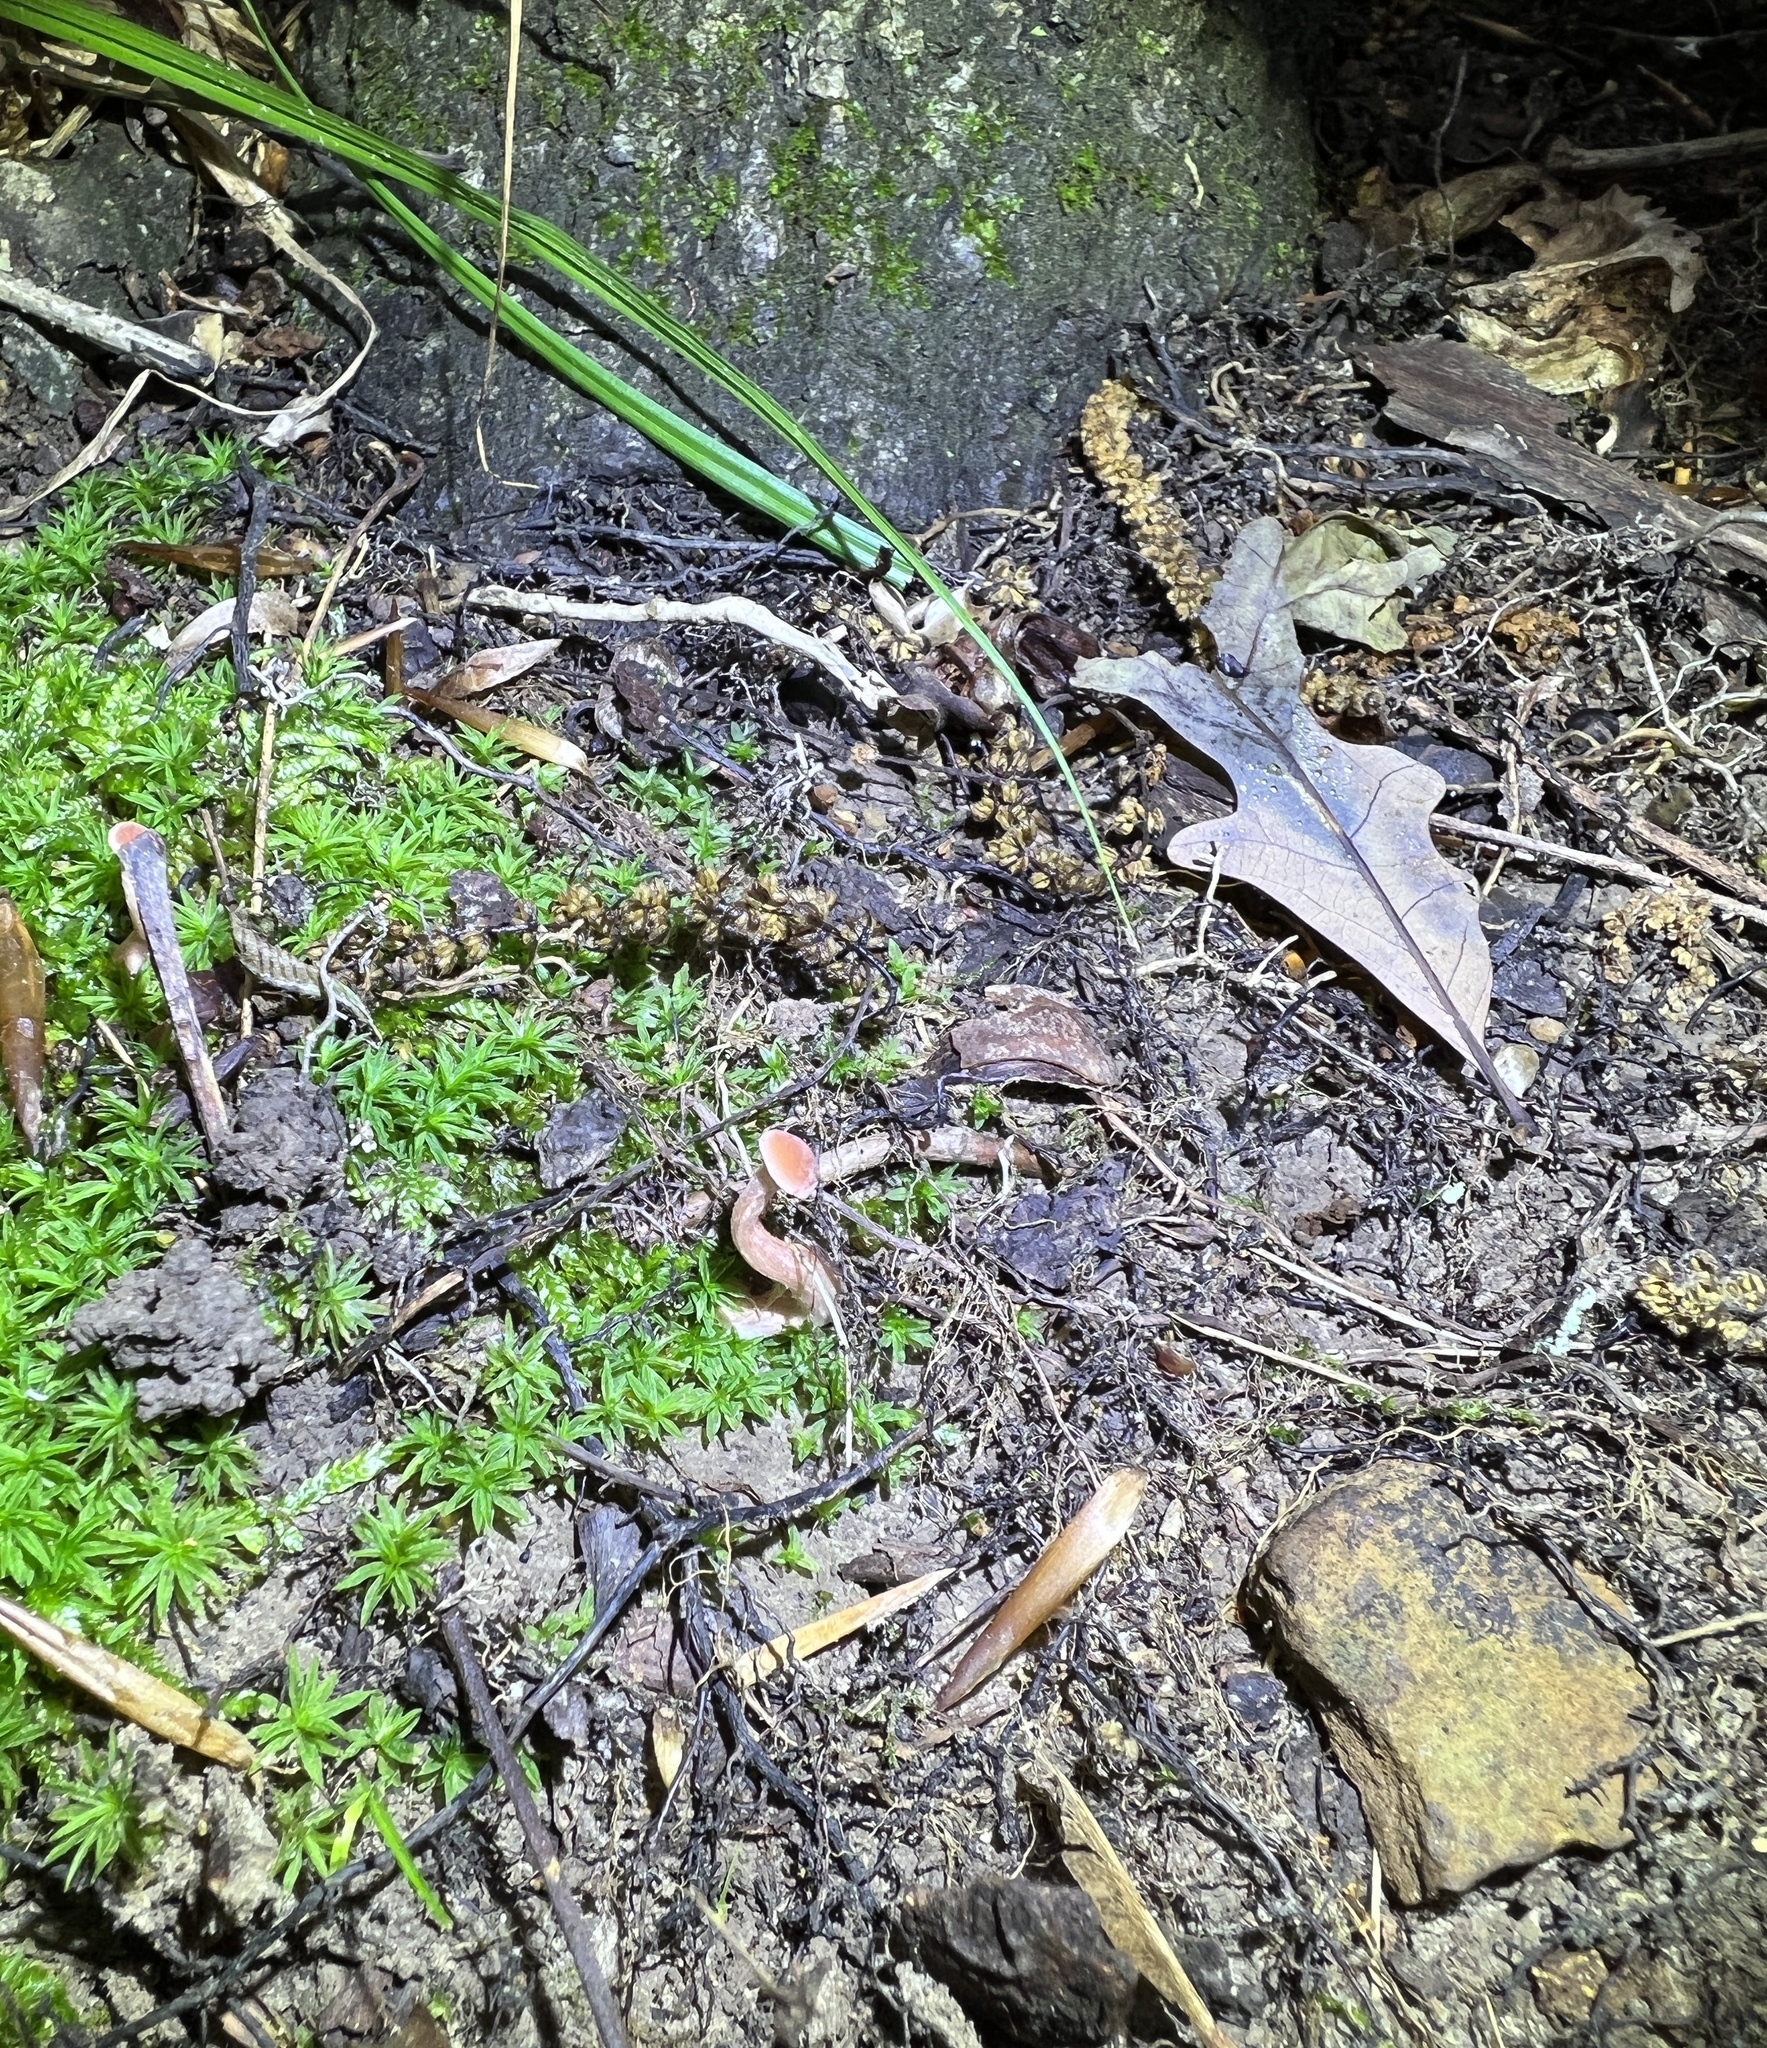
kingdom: Fungi
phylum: Basidiomycota
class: Agaricomycetes
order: Agaricales
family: Hydnangiaceae
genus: Laccaria
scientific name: Laccaria laccata
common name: Deceiver
